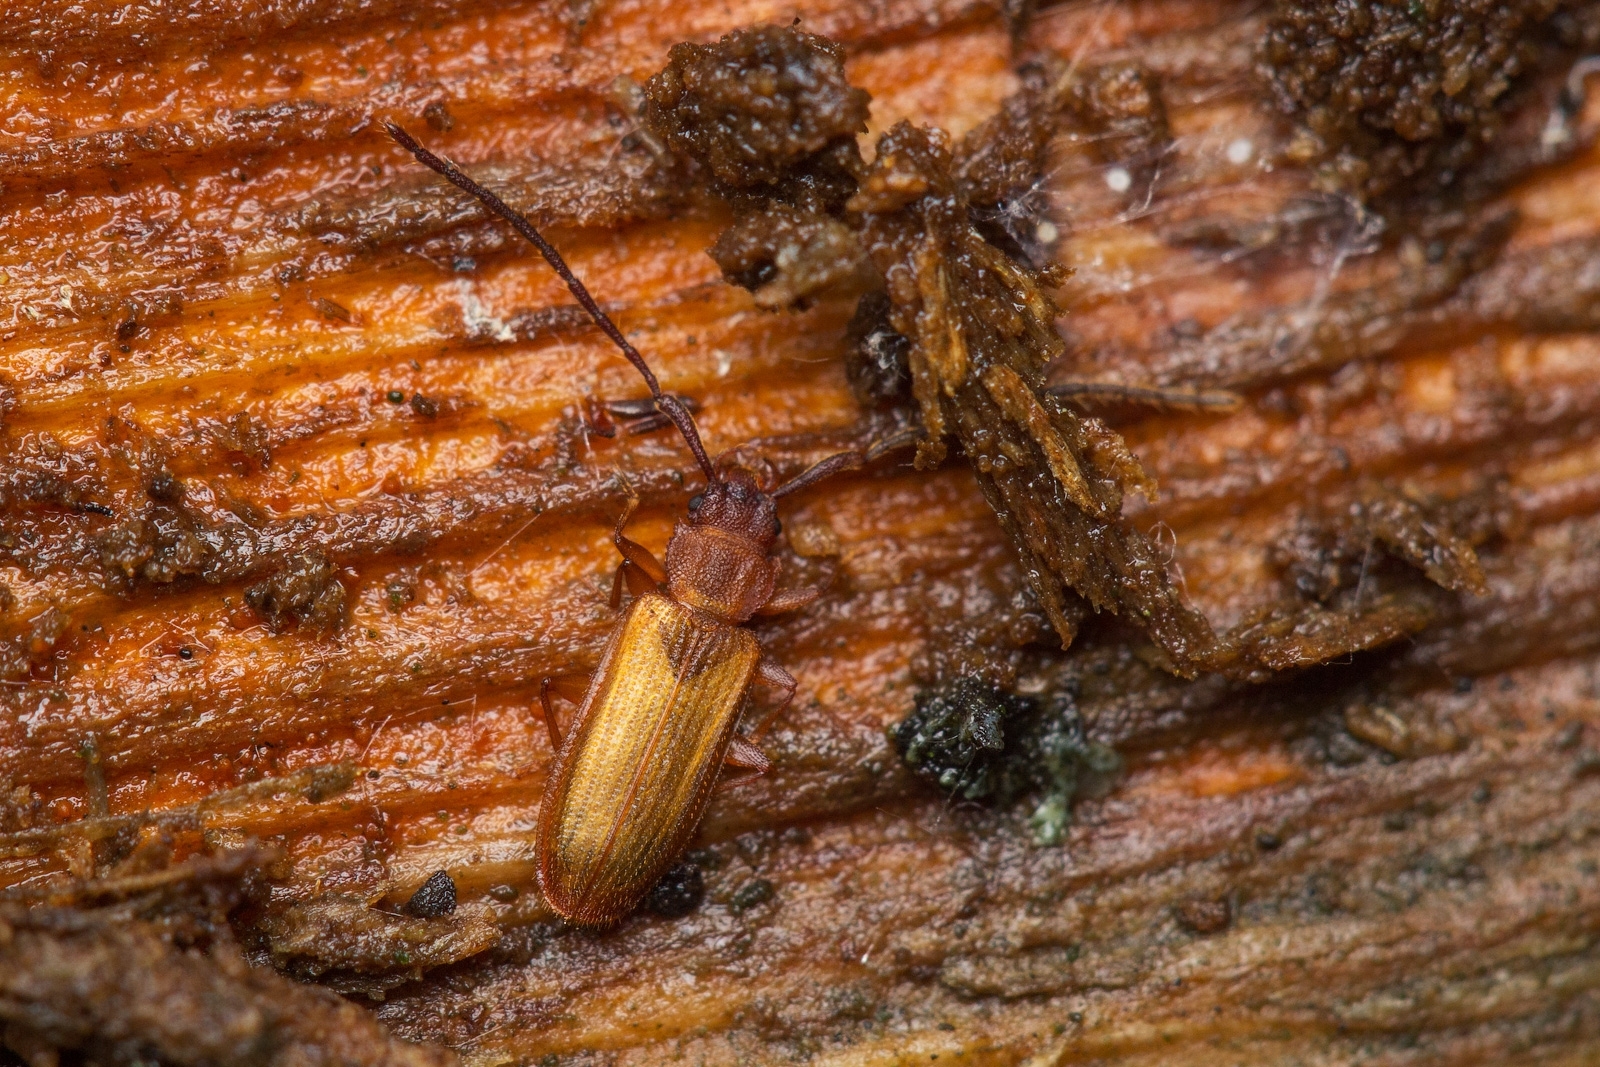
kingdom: Animalia
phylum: Arthropoda
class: Insecta
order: Coleoptera
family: Silvanidae
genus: Uleiota
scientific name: Uleiota planatus
